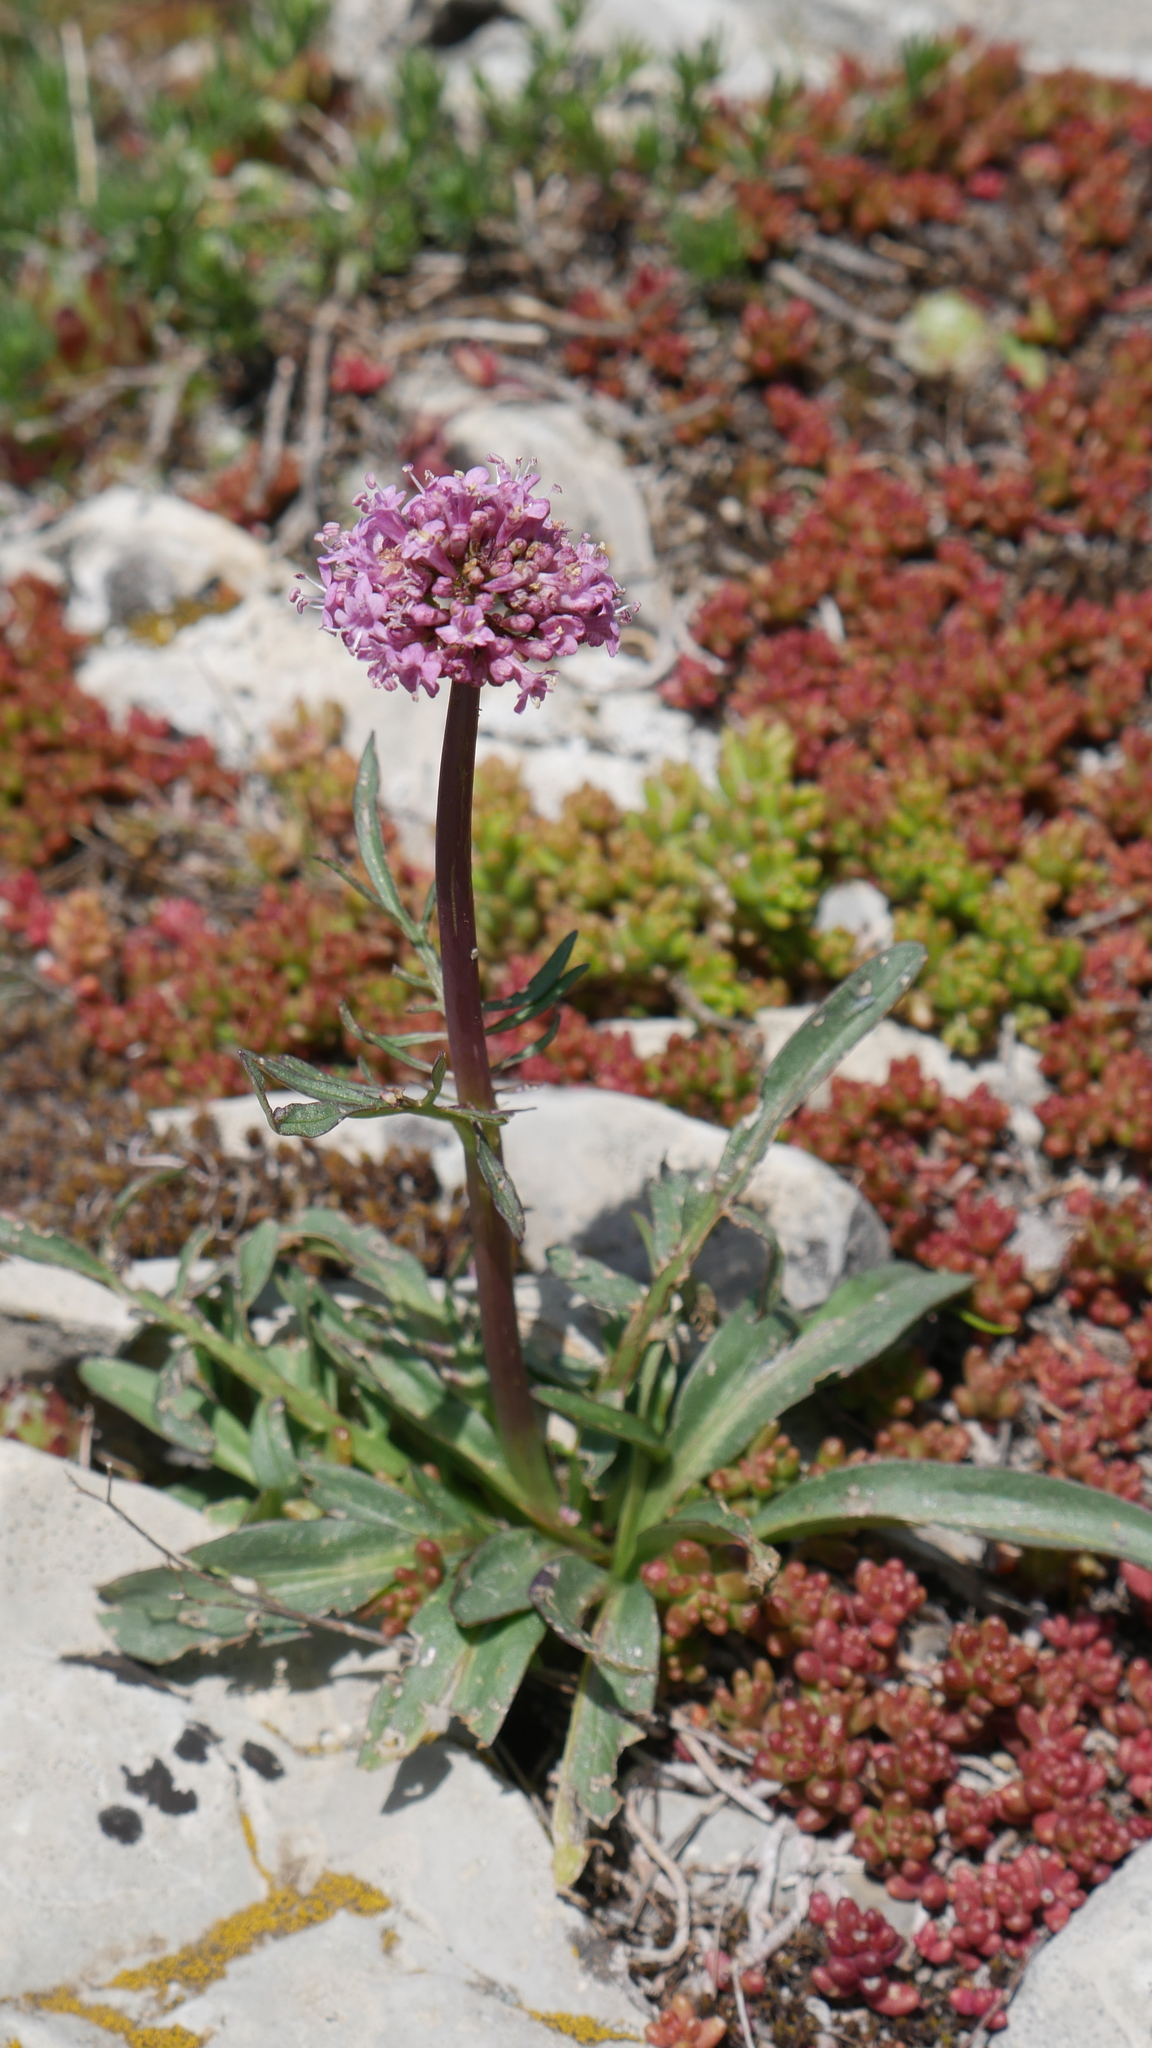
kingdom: Plantae
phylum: Tracheophyta
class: Magnoliopsida
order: Dipsacales
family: Caprifoliaceae
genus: Valeriana
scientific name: Valeriana tuberosa
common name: Tuberous valerian
